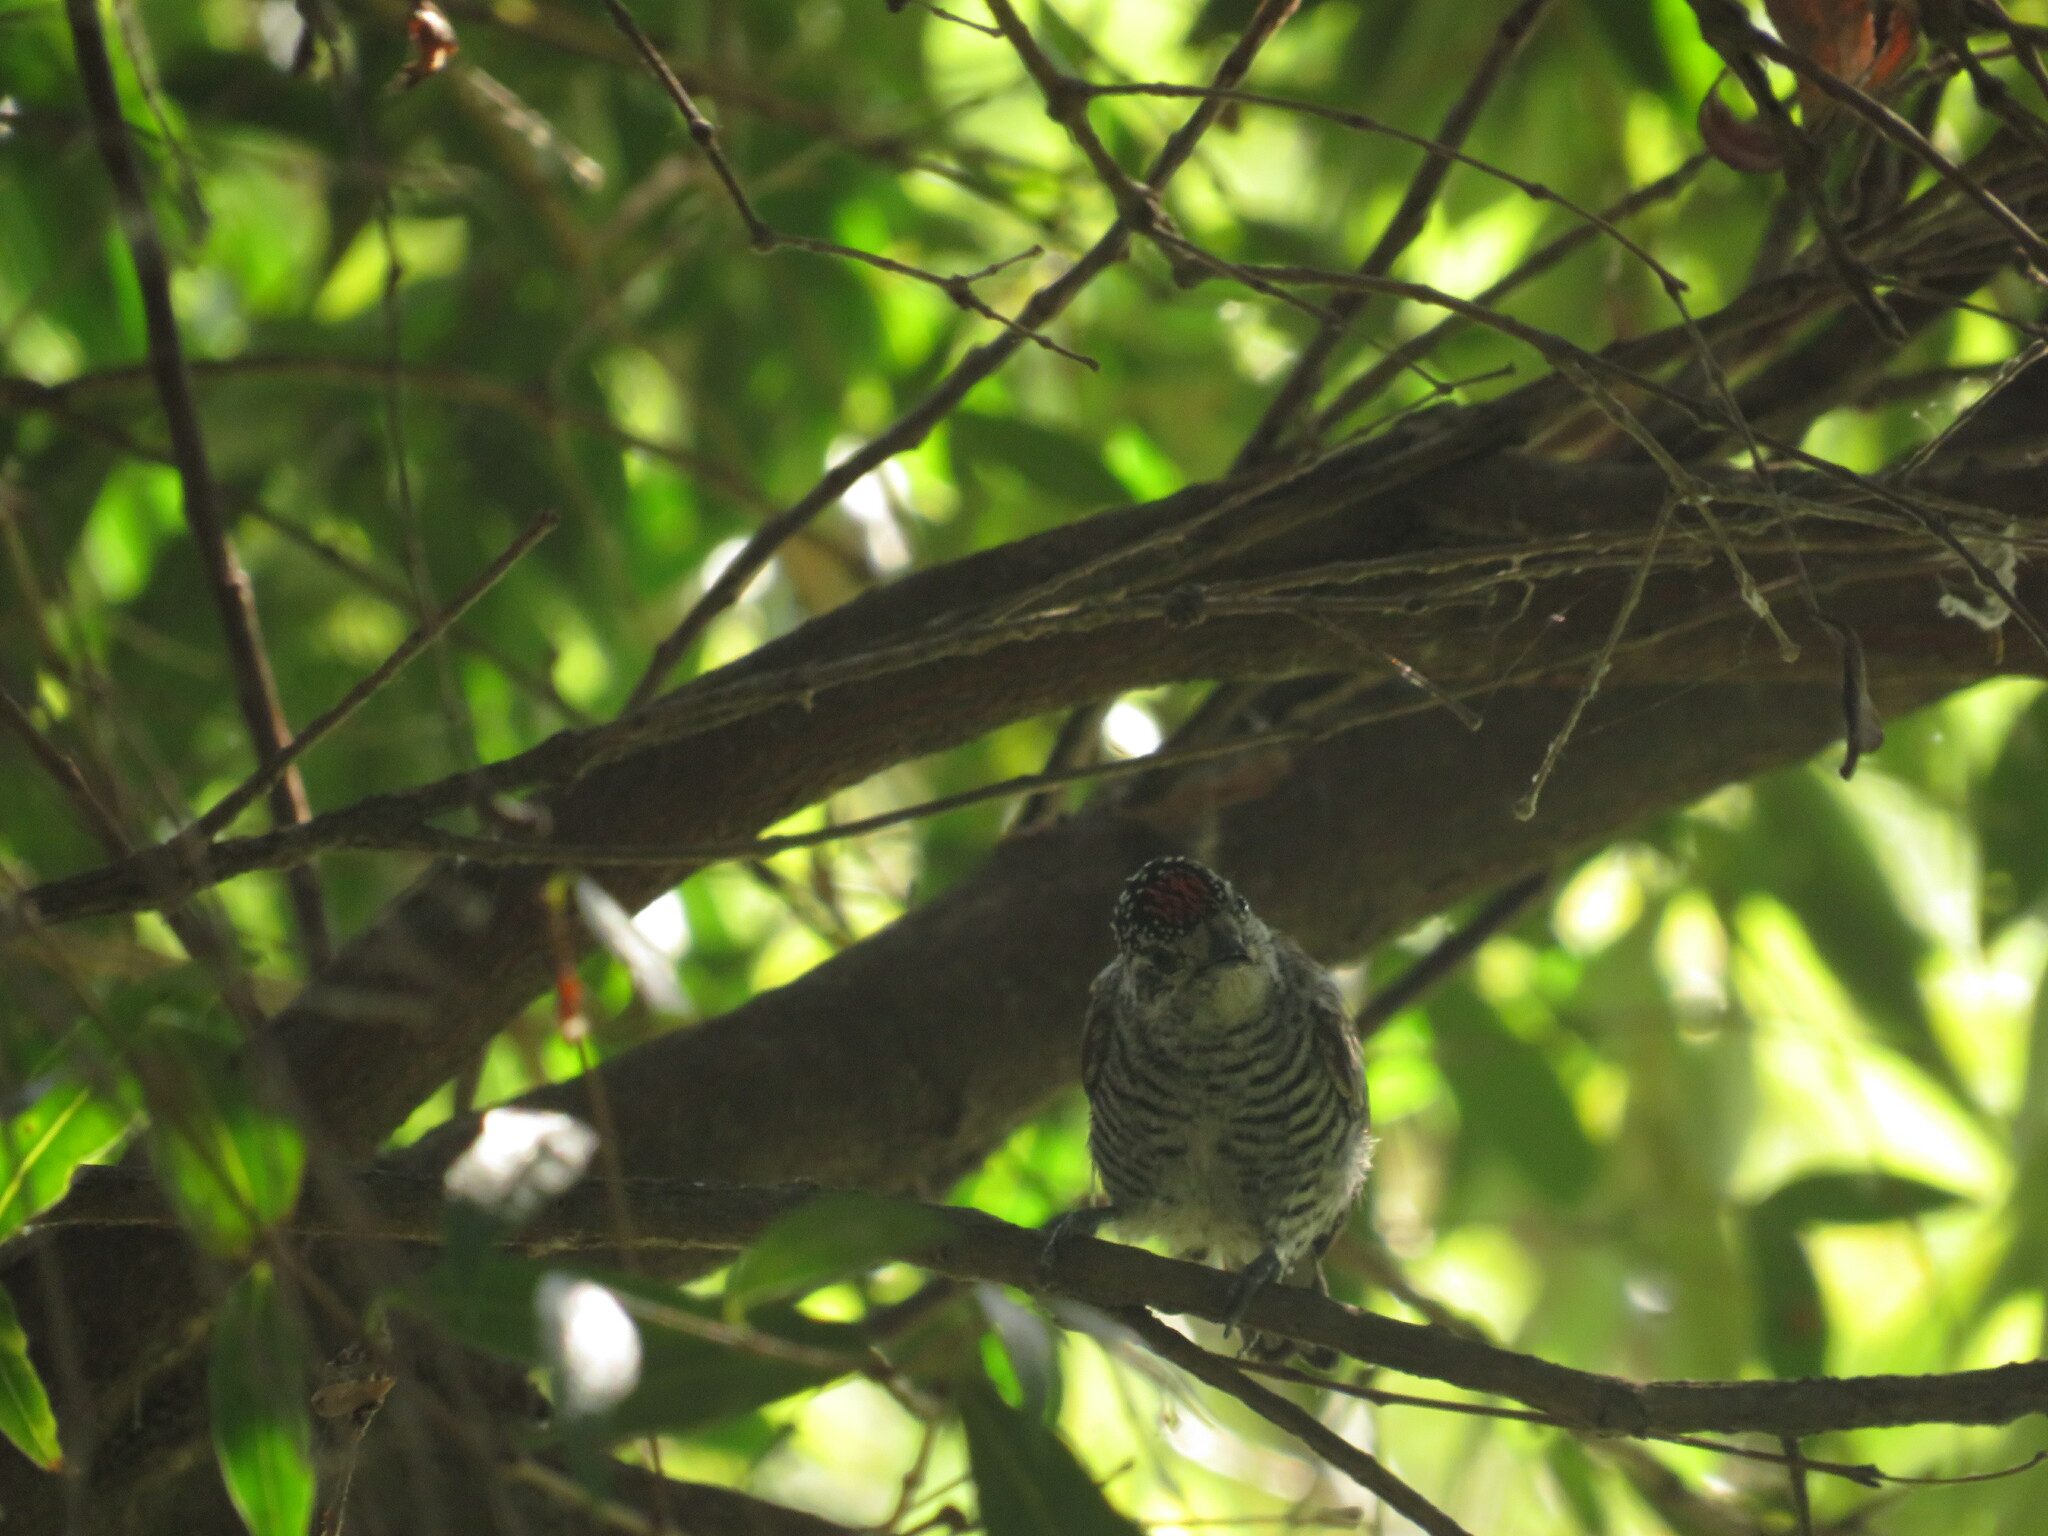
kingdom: Animalia
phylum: Chordata
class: Aves
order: Piciformes
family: Picidae
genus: Picumnus
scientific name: Picumnus cirratus
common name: White-barred piculet
